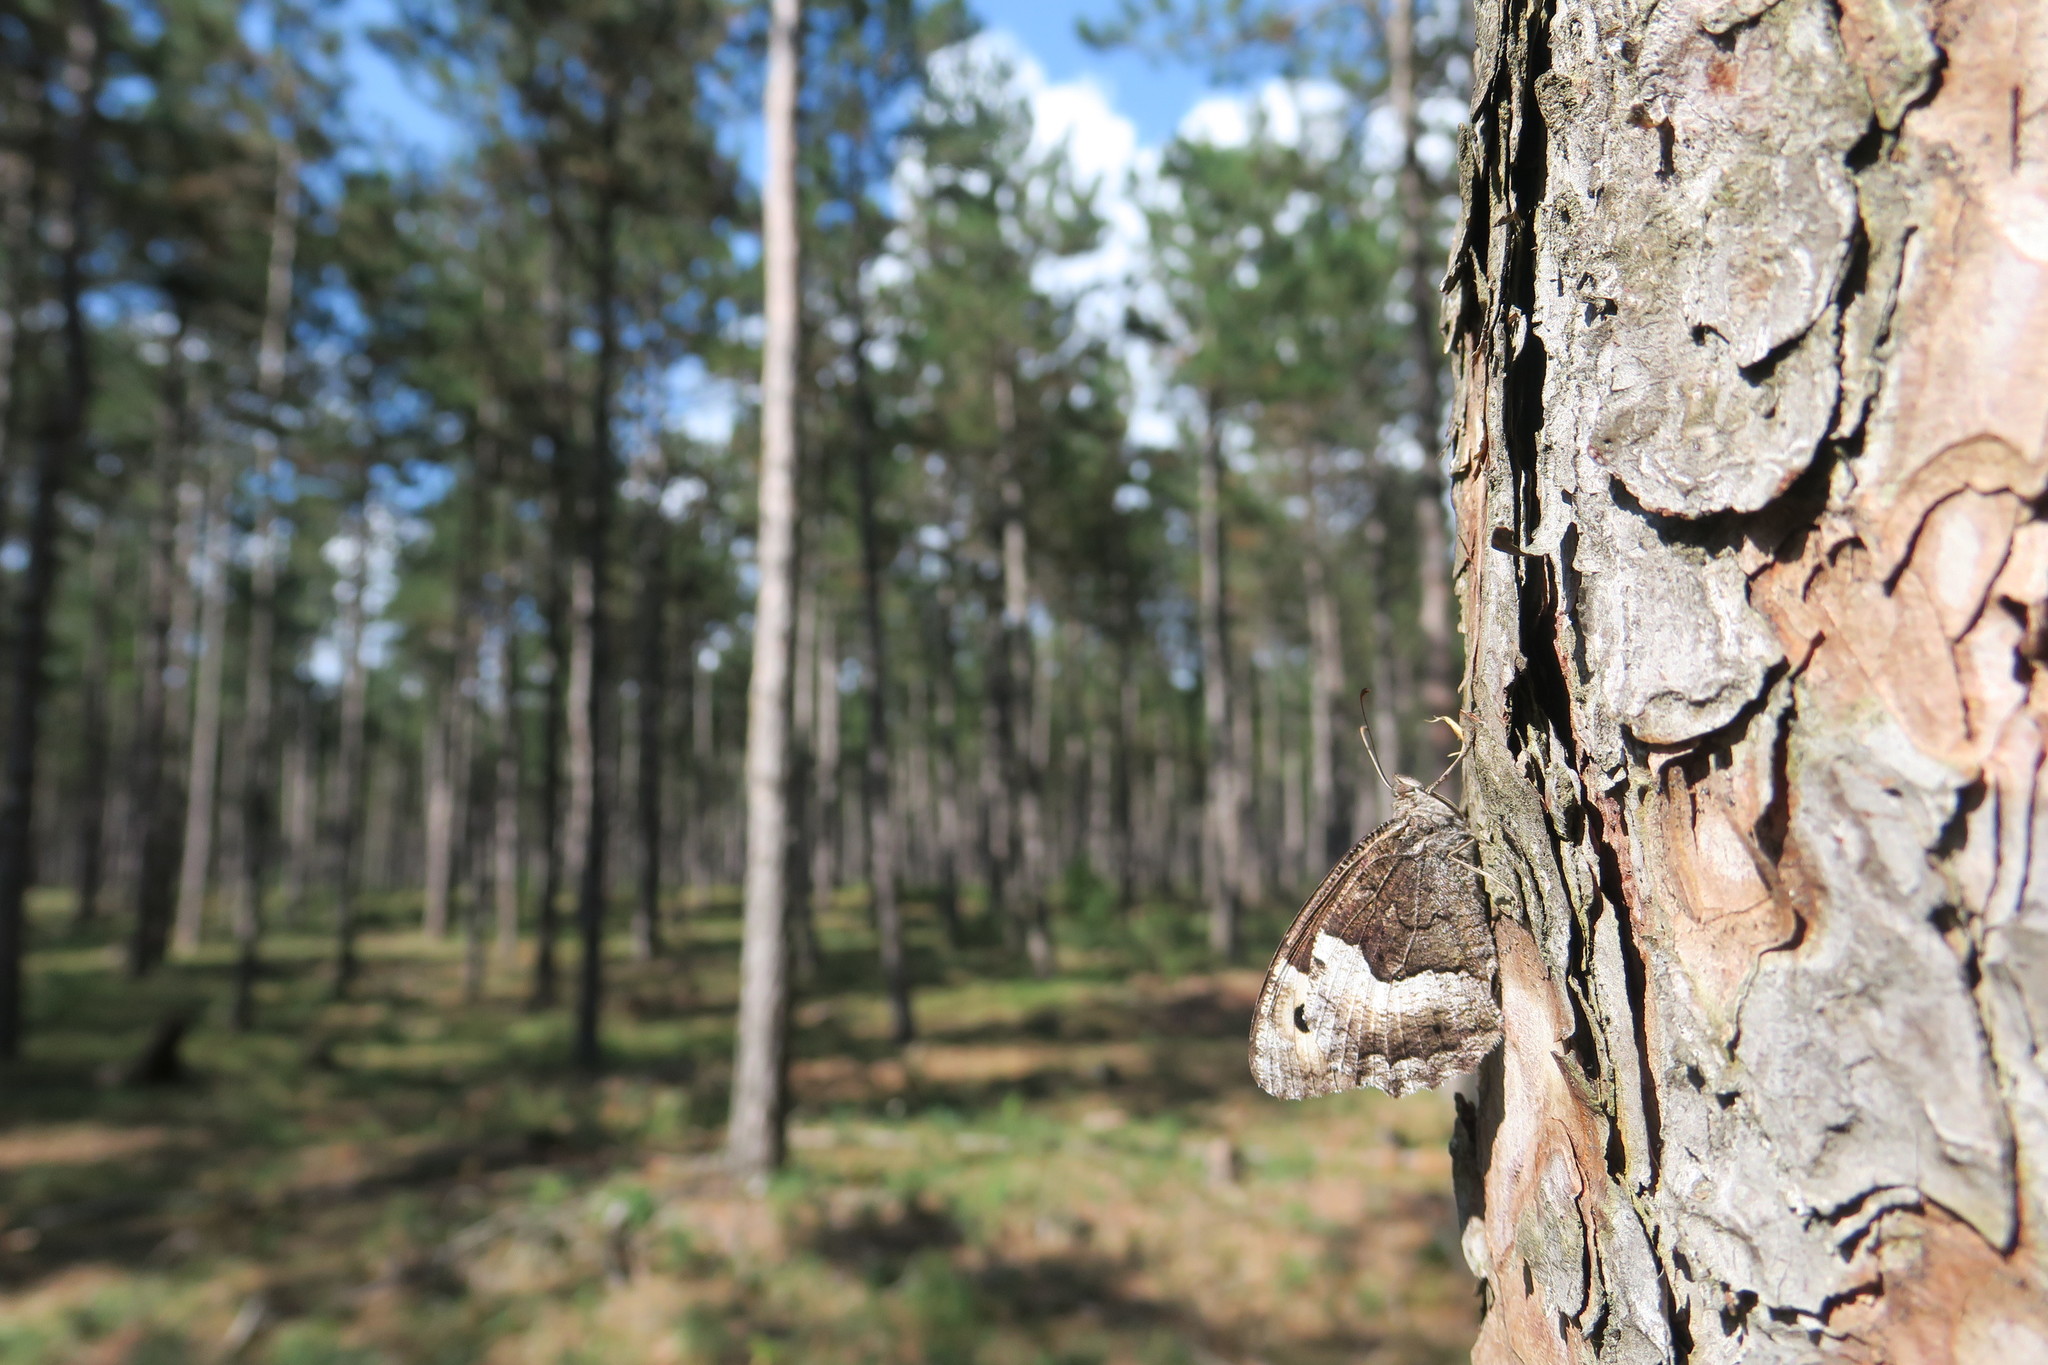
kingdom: Animalia
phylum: Arthropoda
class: Insecta
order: Lepidoptera
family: Nymphalidae
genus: Hipparchia
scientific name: Hipparchia hermione
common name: Rock grayling
